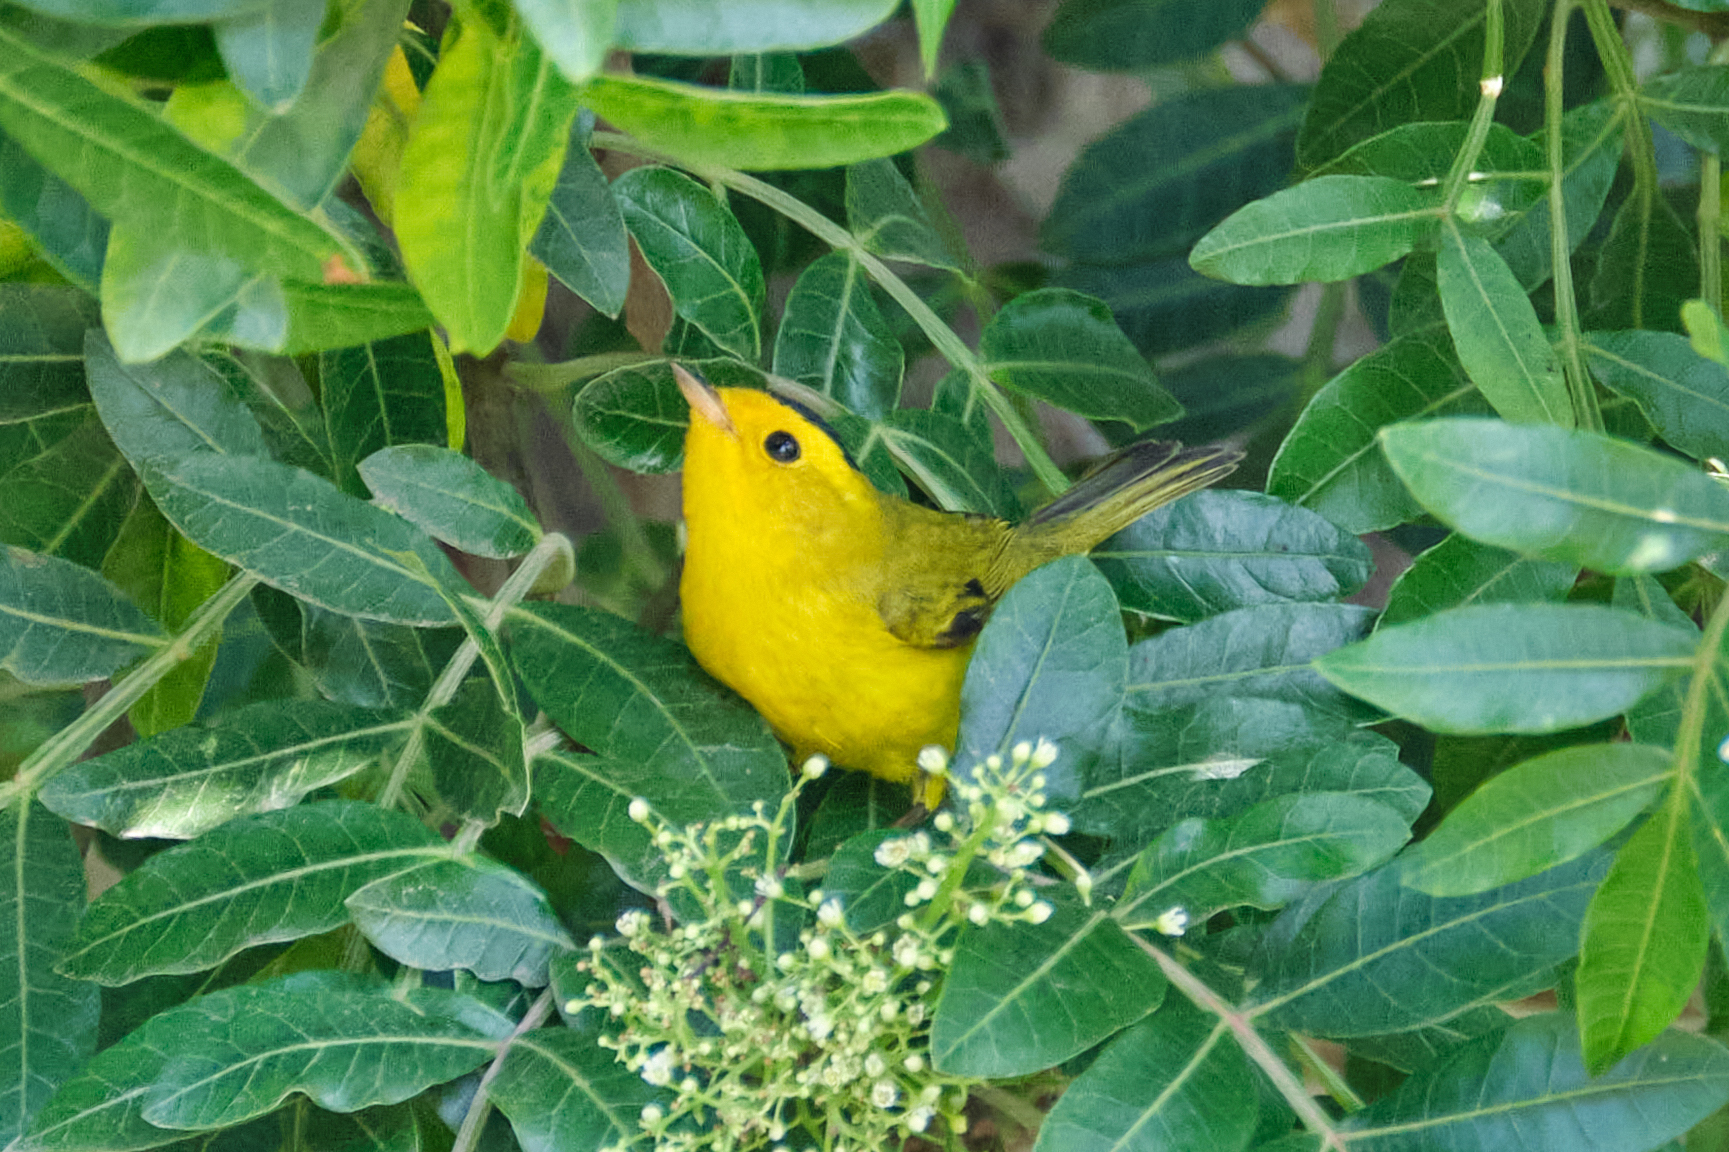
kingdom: Animalia
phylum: Chordata
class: Aves
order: Passeriformes
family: Parulidae
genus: Cardellina
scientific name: Cardellina pusilla
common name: Wilson's warbler
